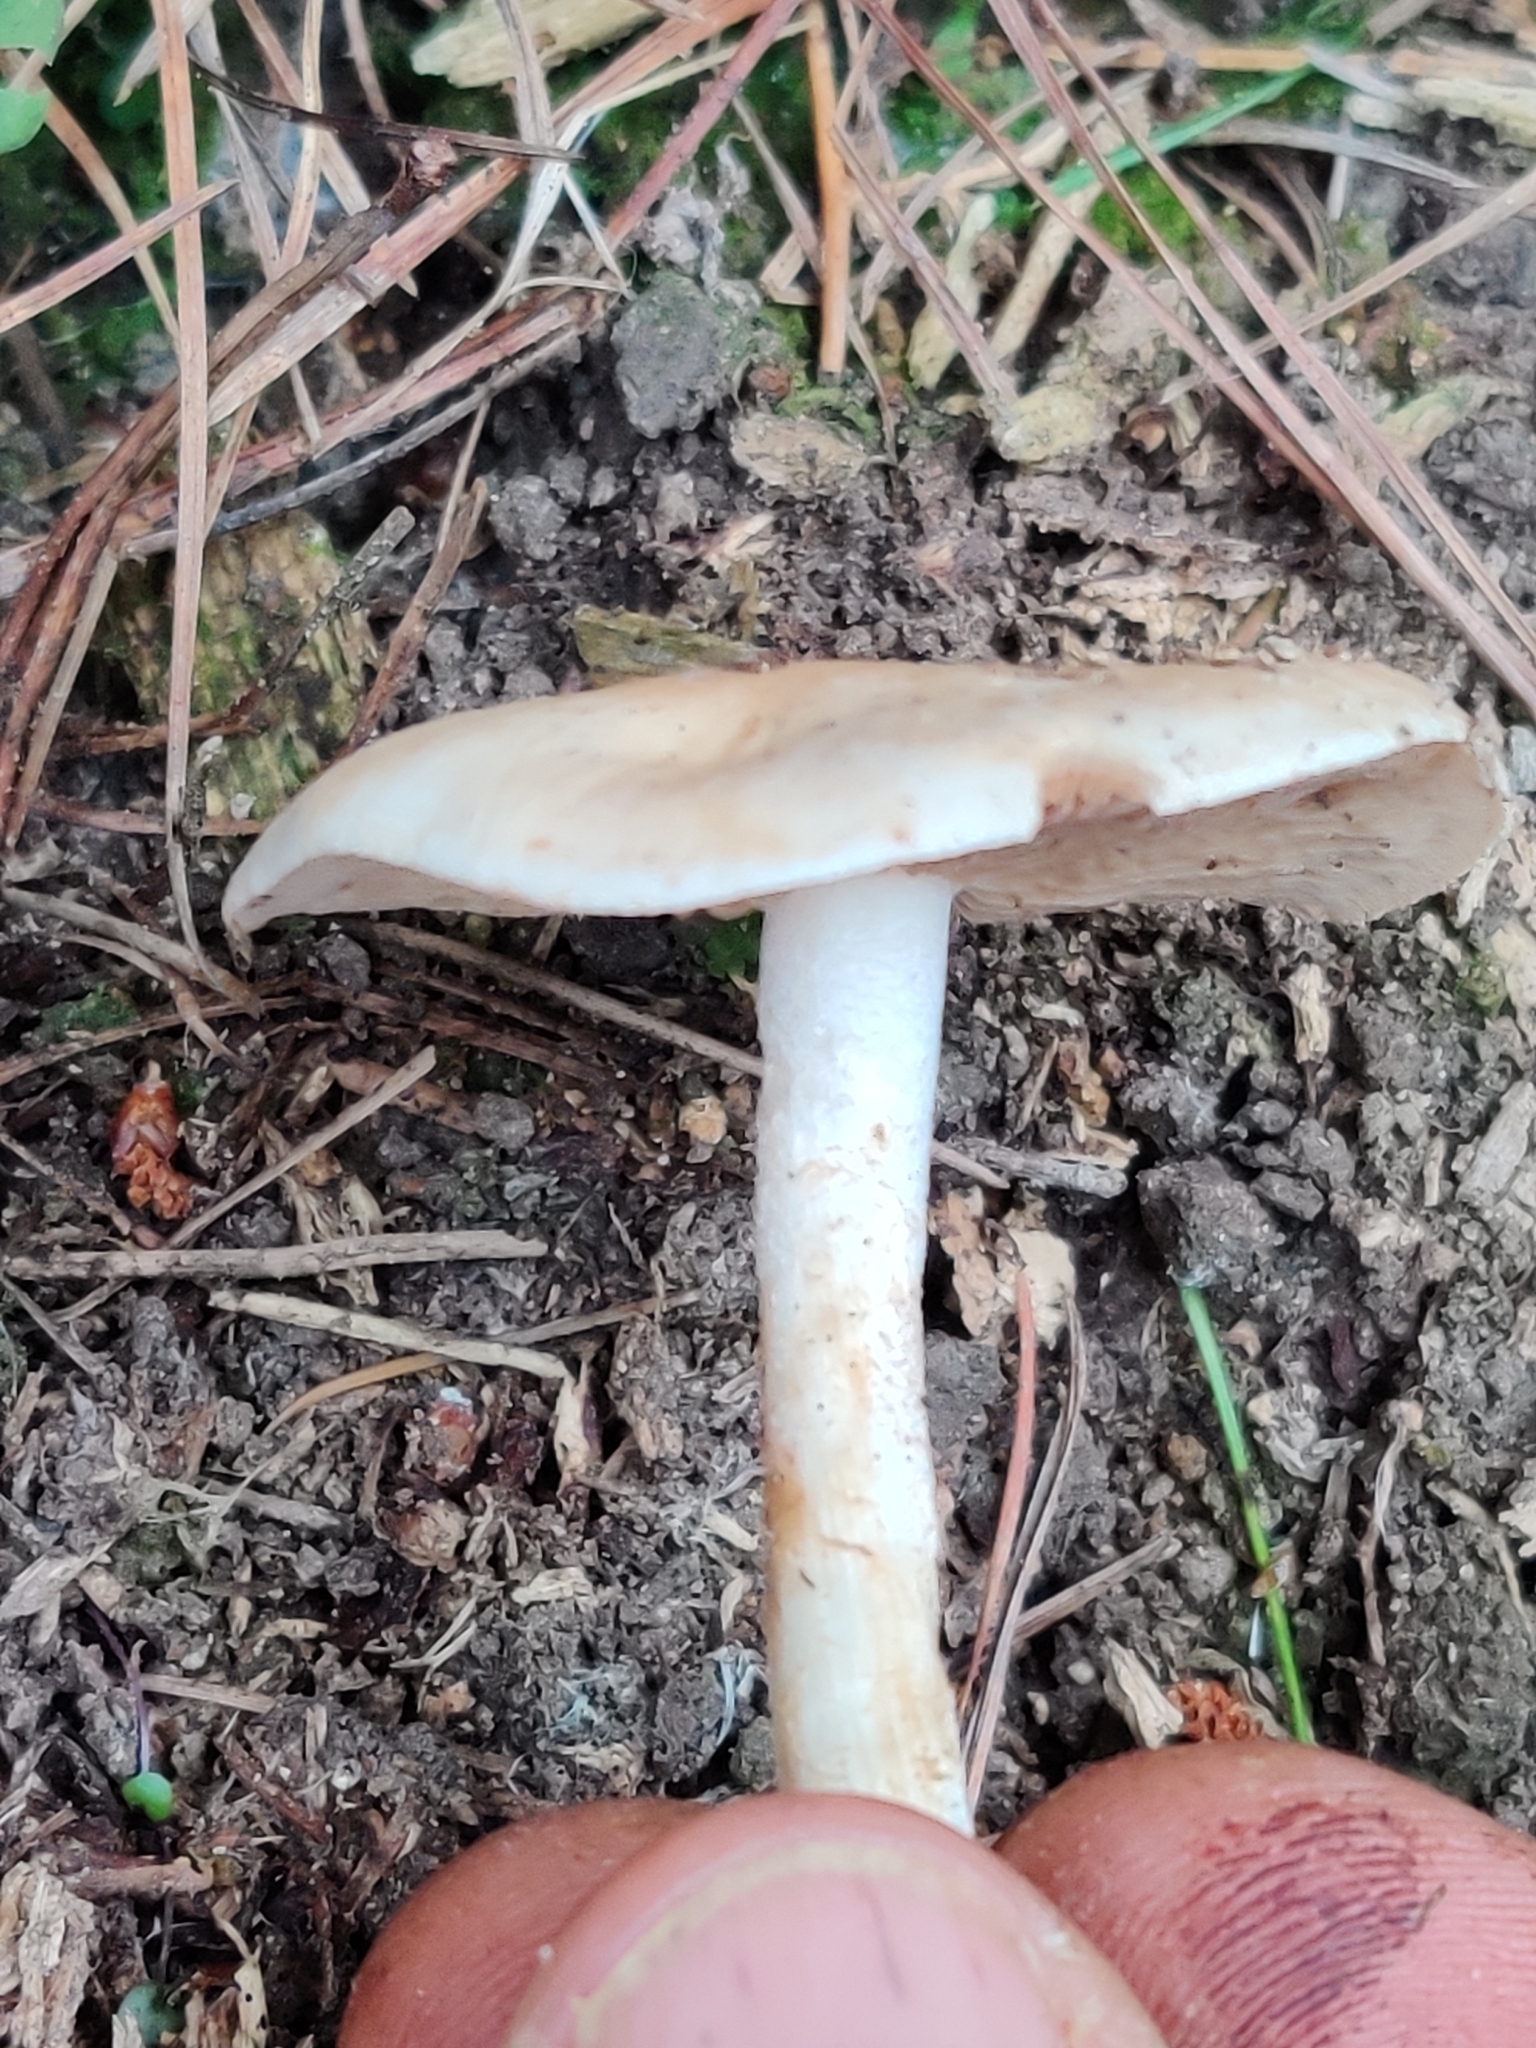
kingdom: Fungi
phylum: Basidiomycota
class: Agaricomycetes
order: Agaricales
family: Hymenogastraceae
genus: Hebeloma
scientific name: Hebeloma leucosarx
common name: Birch poisonpie
